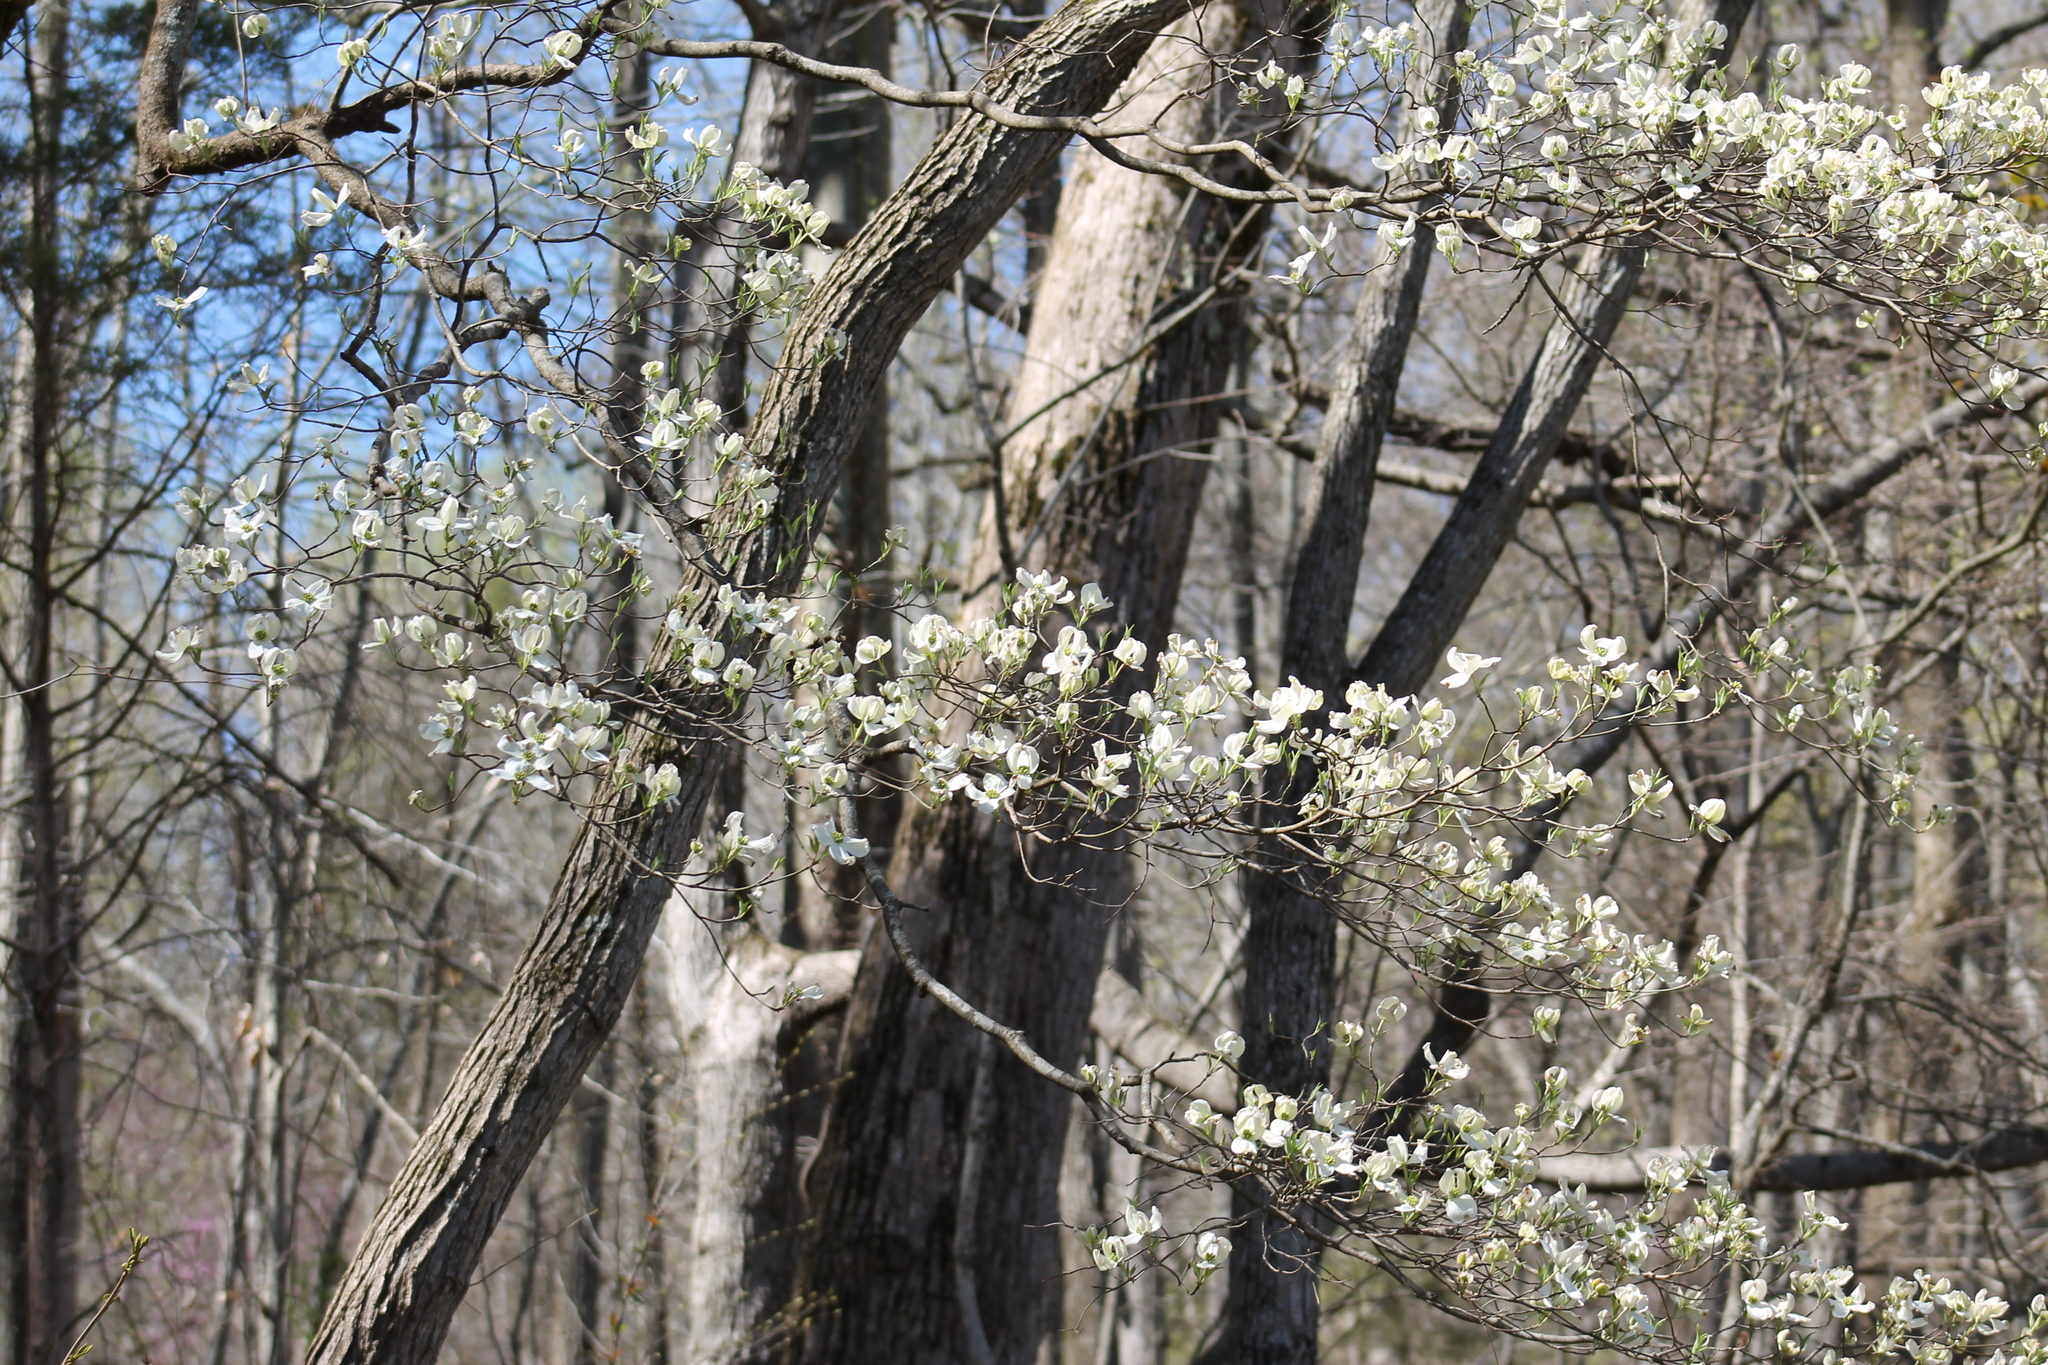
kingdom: Plantae
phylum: Tracheophyta
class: Magnoliopsida
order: Cornales
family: Cornaceae
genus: Cornus
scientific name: Cornus florida
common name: Flowering dogwood
